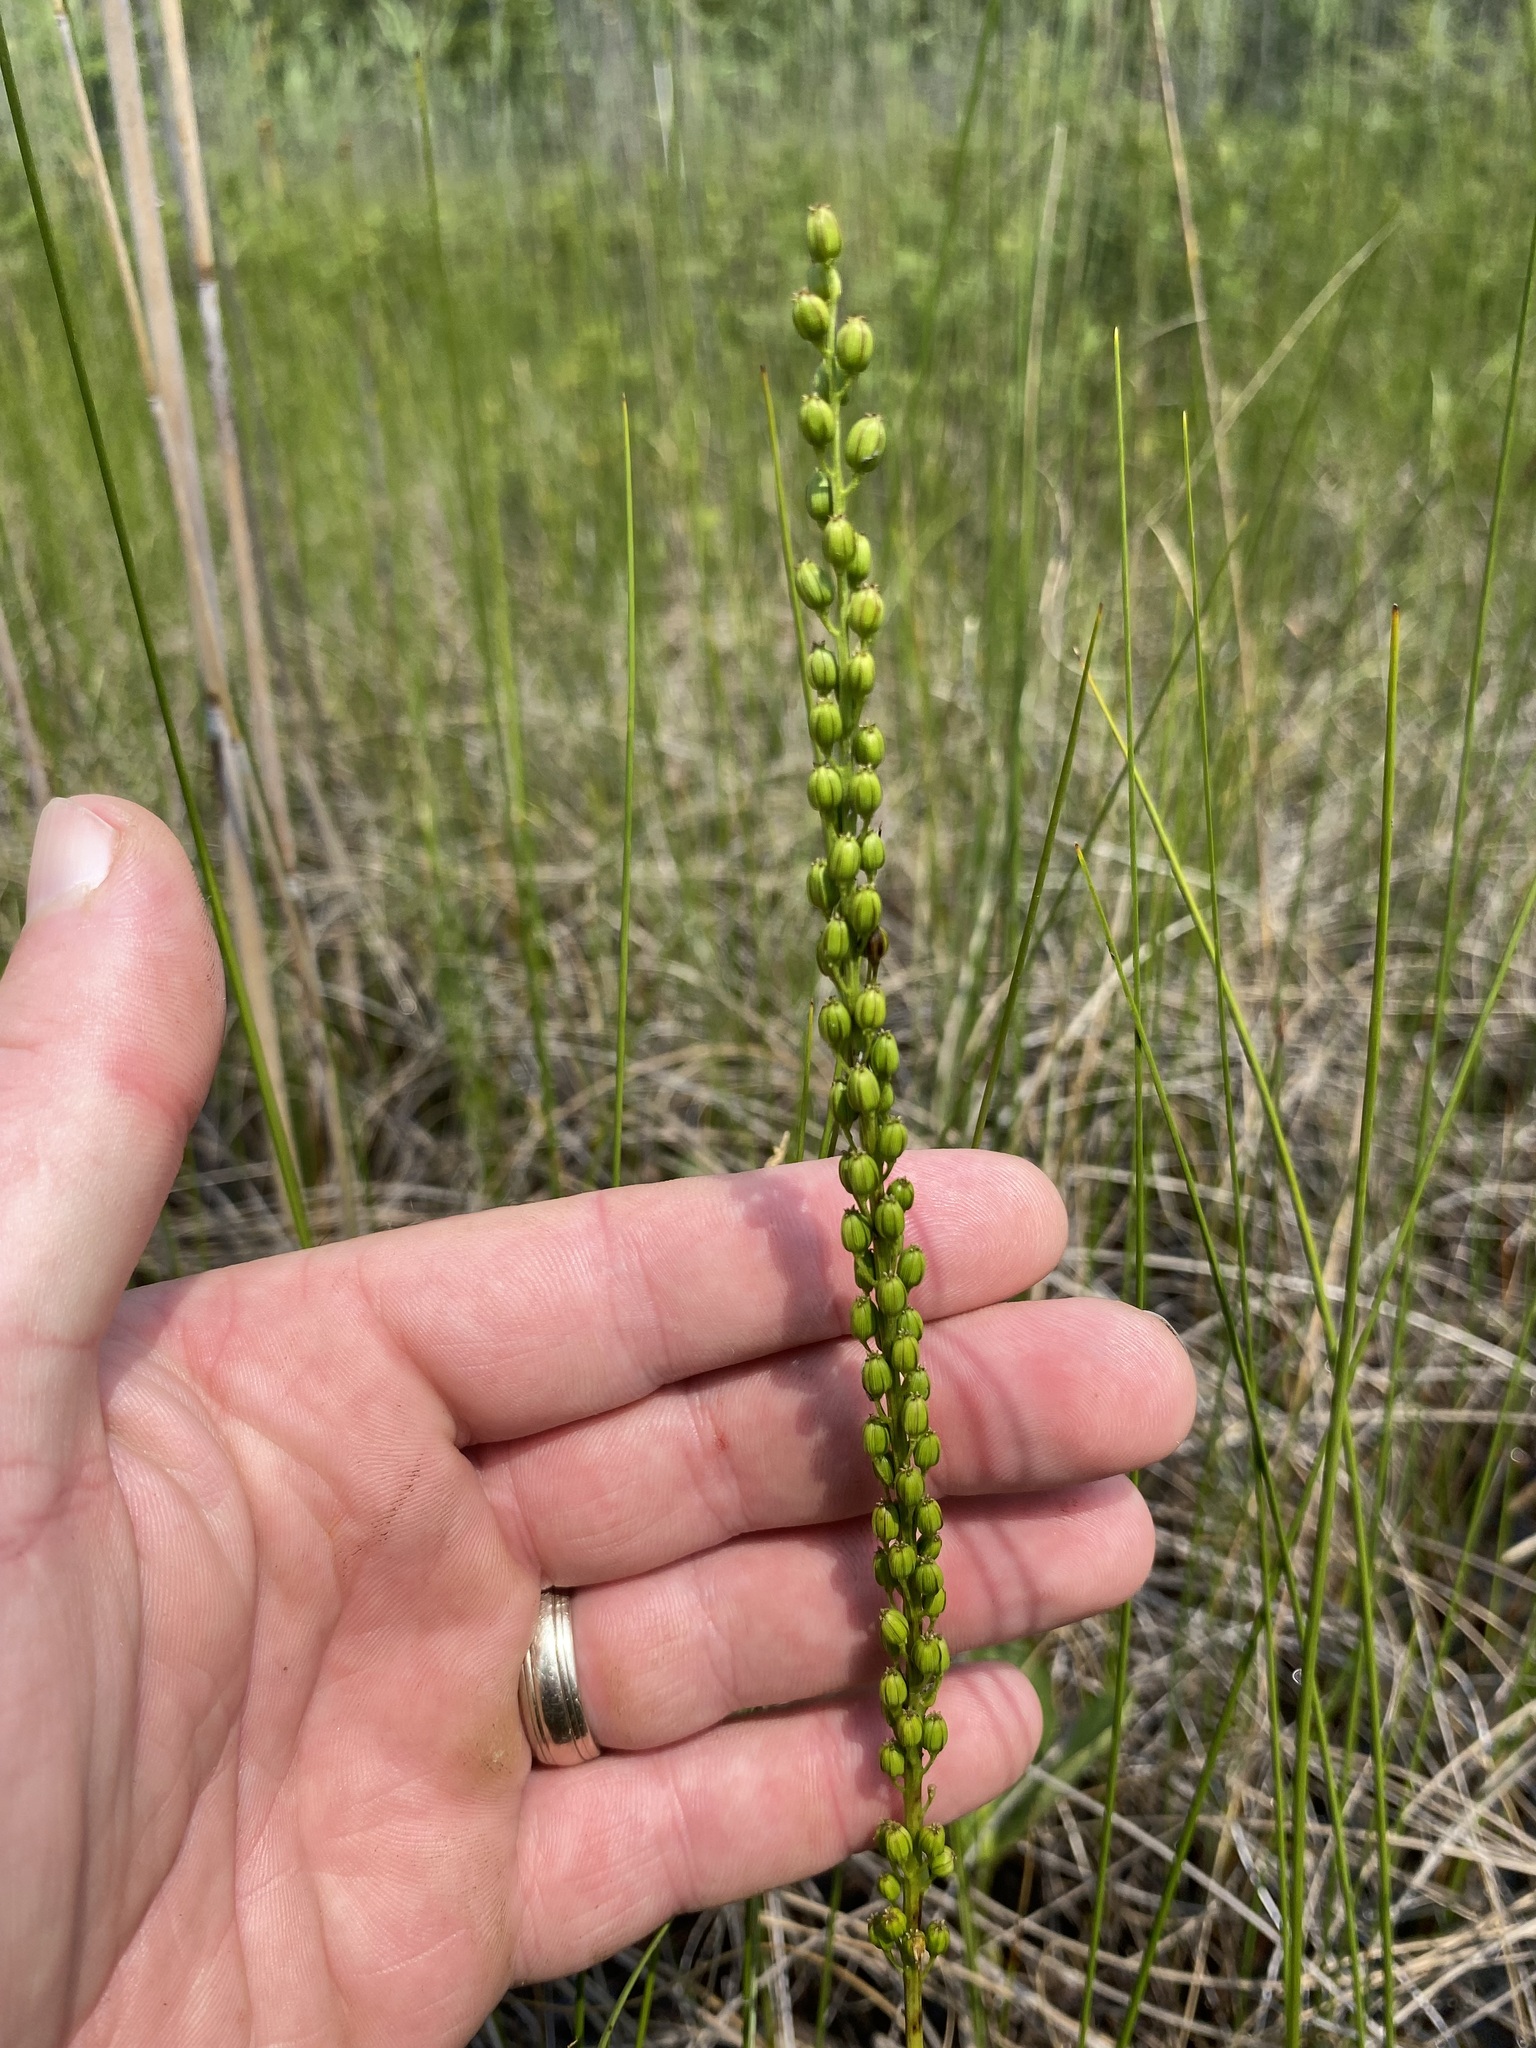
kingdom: Plantae
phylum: Tracheophyta
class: Liliopsida
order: Alismatales
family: Juncaginaceae
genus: Triglochin
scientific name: Triglochin maritima
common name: Sea arrowgrass
